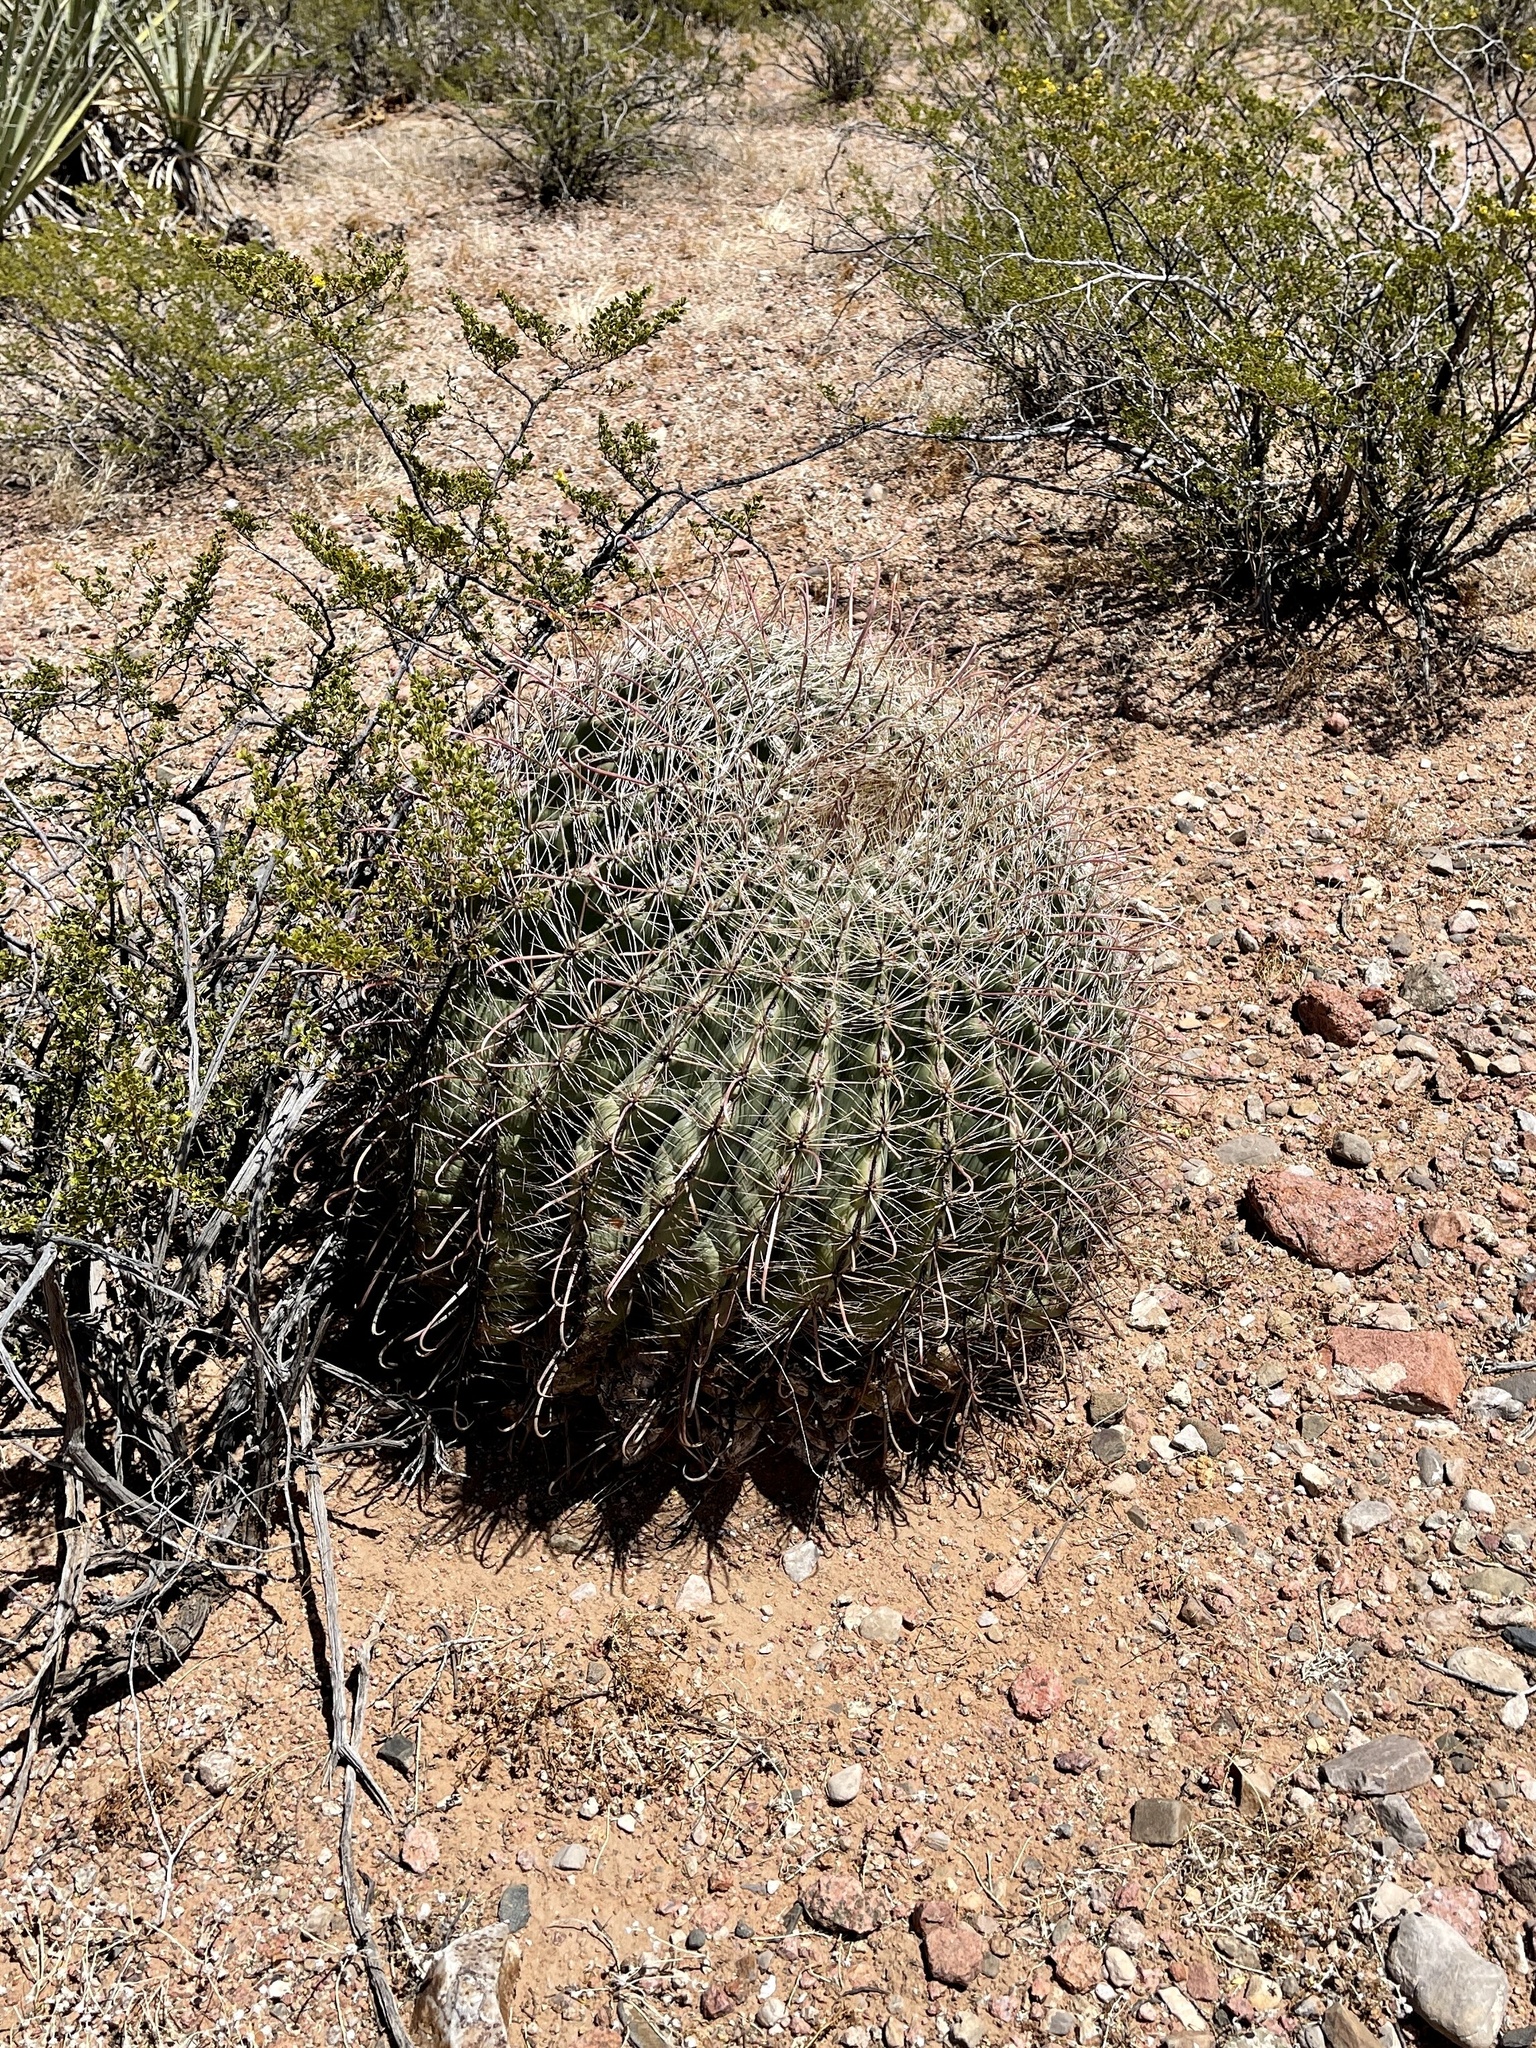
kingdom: Plantae
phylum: Tracheophyta
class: Magnoliopsida
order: Caryophyllales
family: Cactaceae
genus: Ferocactus
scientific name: Ferocactus wislizeni
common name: Candy barrel cactus
